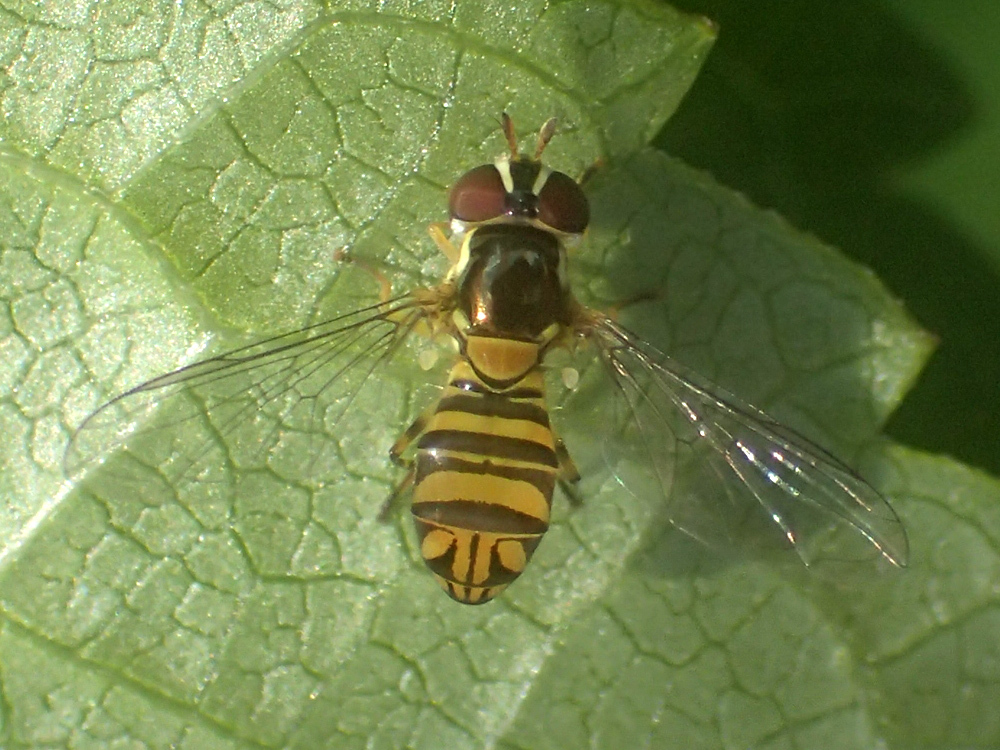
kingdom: Animalia
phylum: Arthropoda
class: Insecta
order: Diptera
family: Syrphidae
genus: Allograpta
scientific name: Allograpta obliqua
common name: Common oblique syrphid
